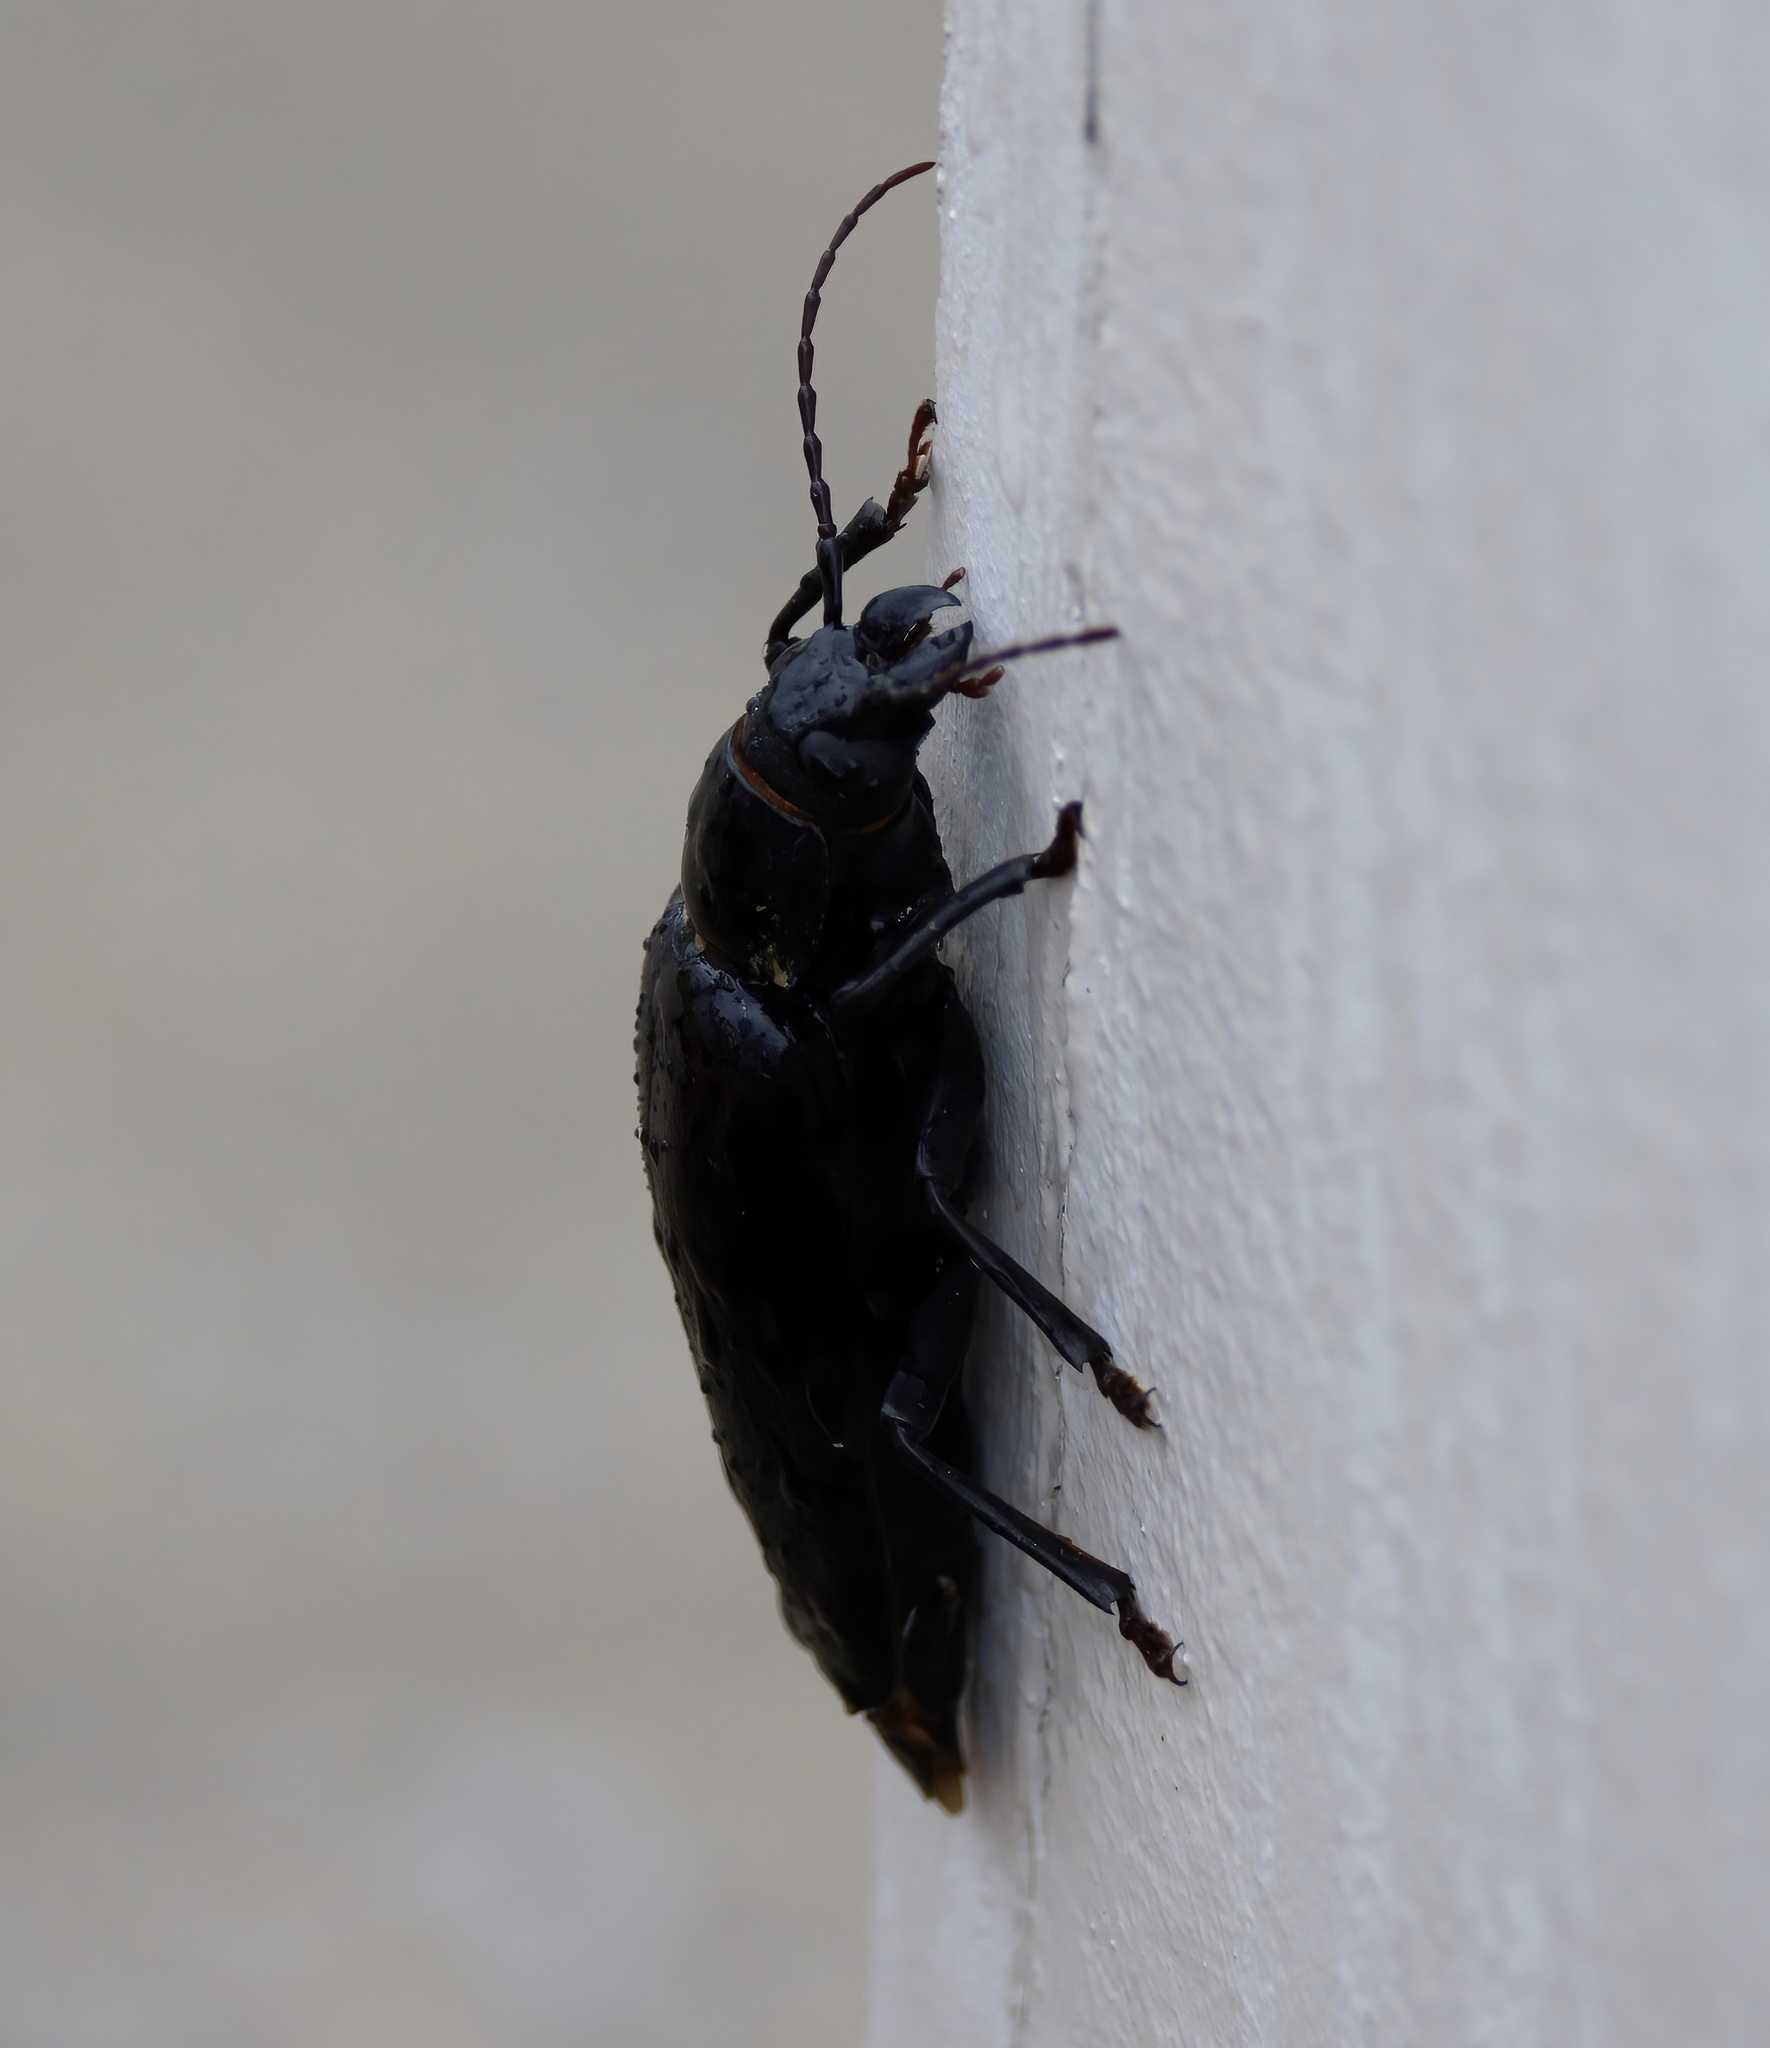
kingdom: Animalia
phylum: Arthropoda
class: Insecta
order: Coleoptera
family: Cerambycidae
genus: Archodontes
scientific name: Archodontes melanopus
